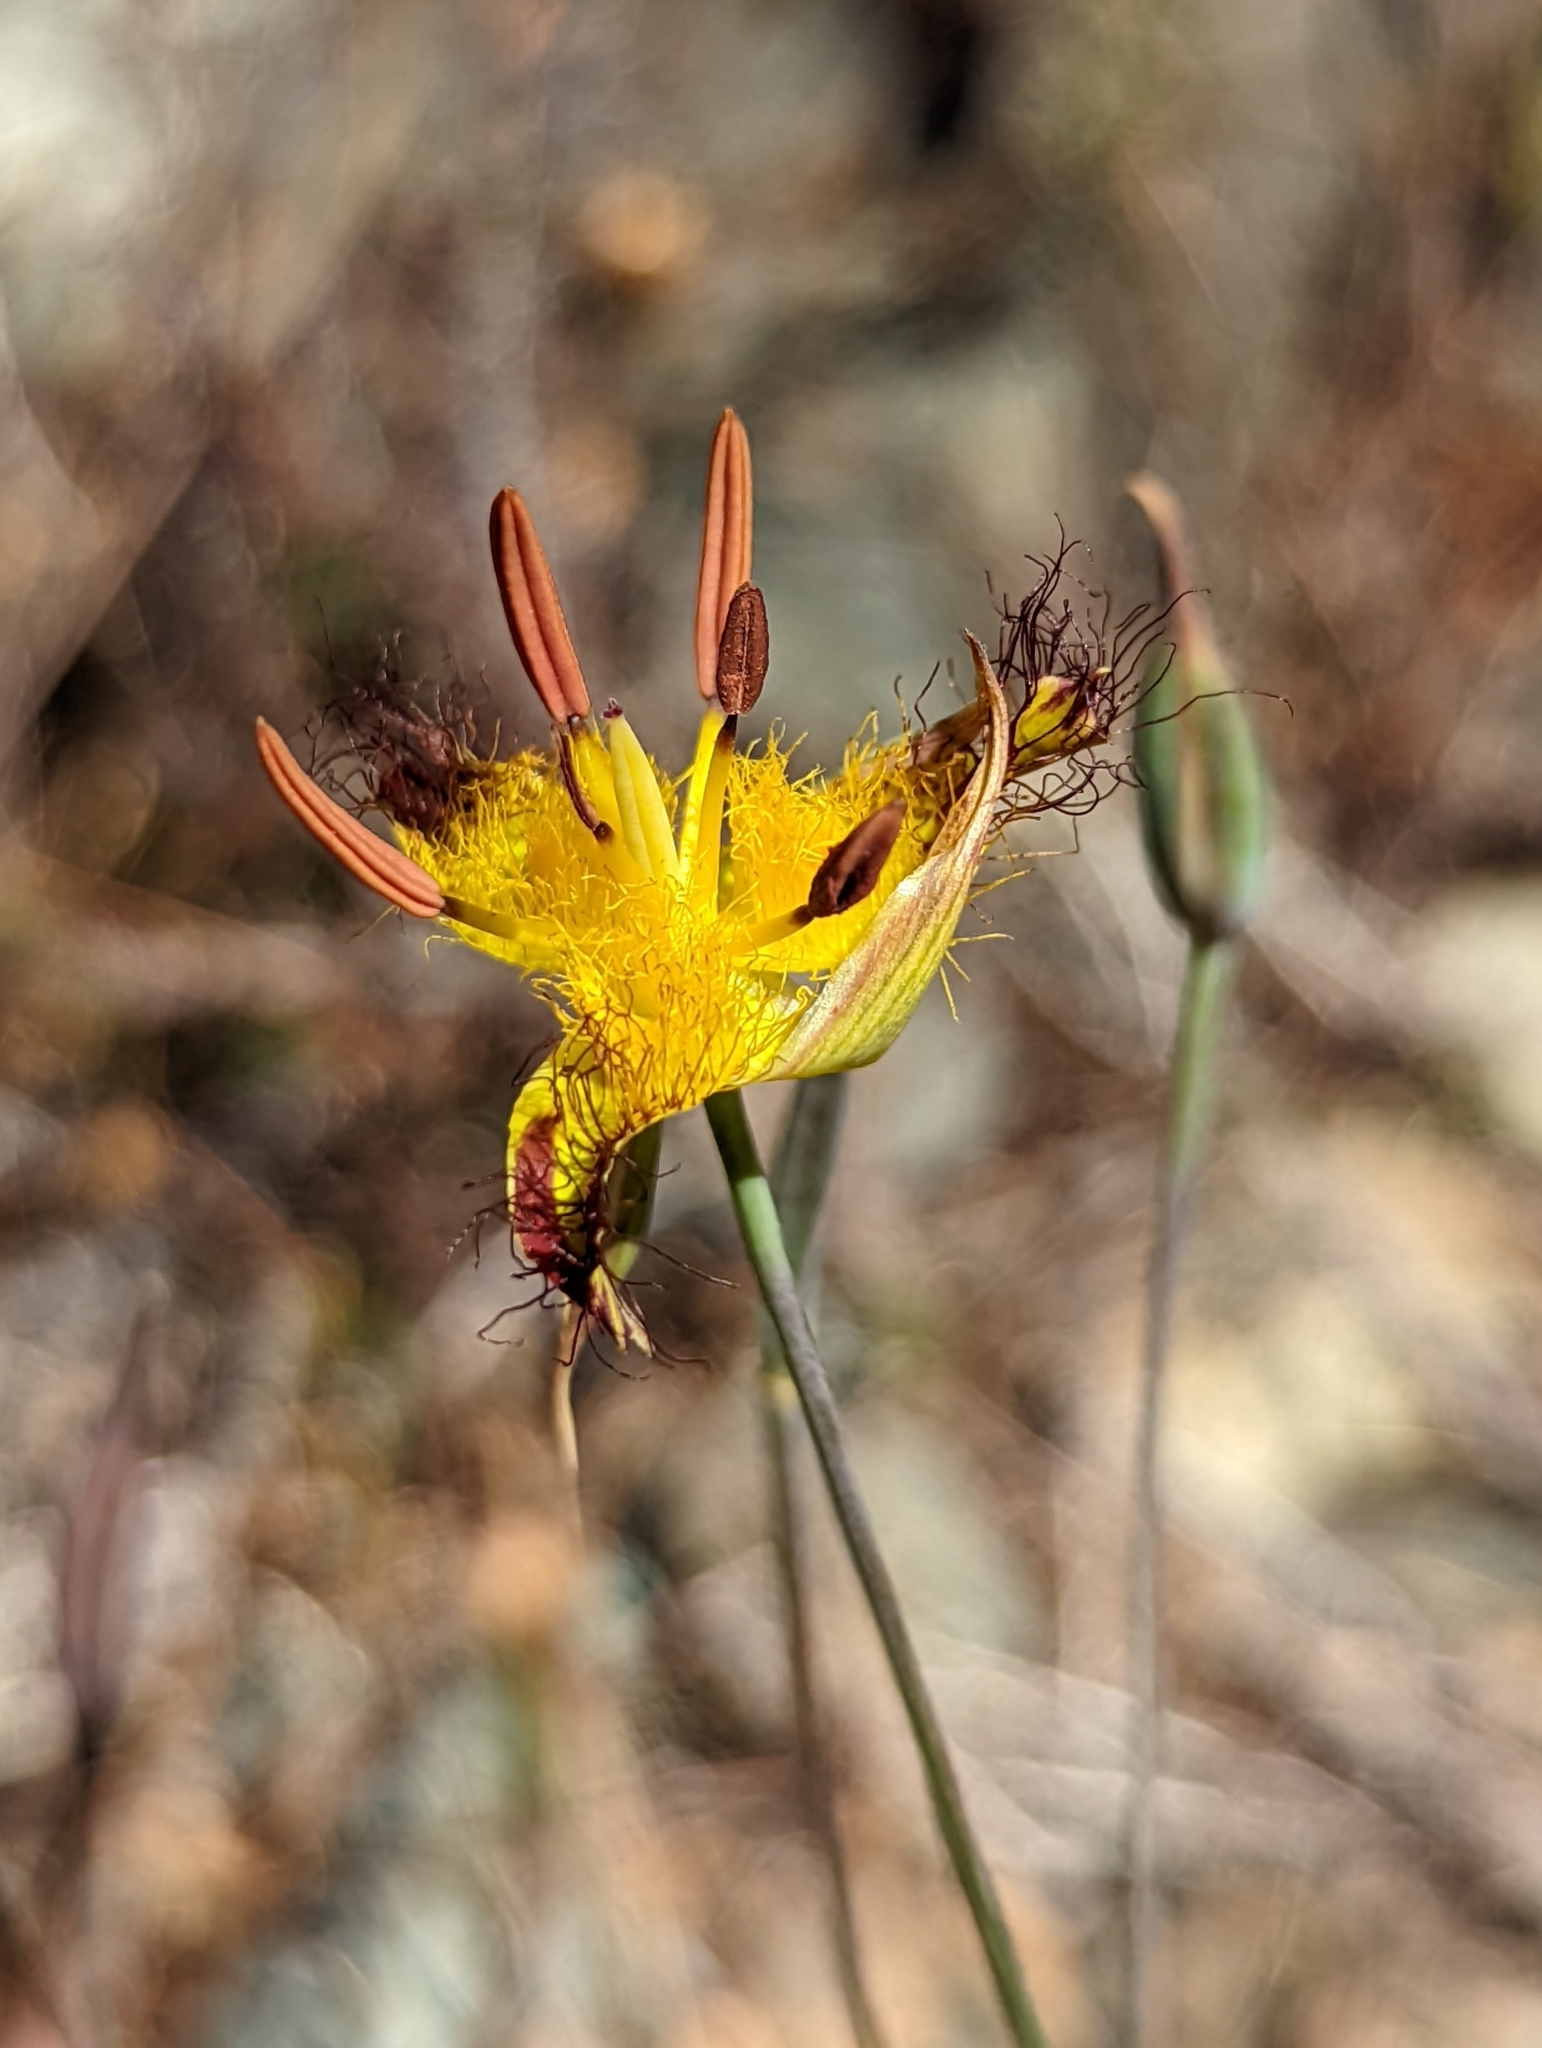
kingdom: Plantae
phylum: Tracheophyta
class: Liliopsida
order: Liliales
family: Liliaceae
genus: Calochortus
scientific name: Calochortus obispoensis
